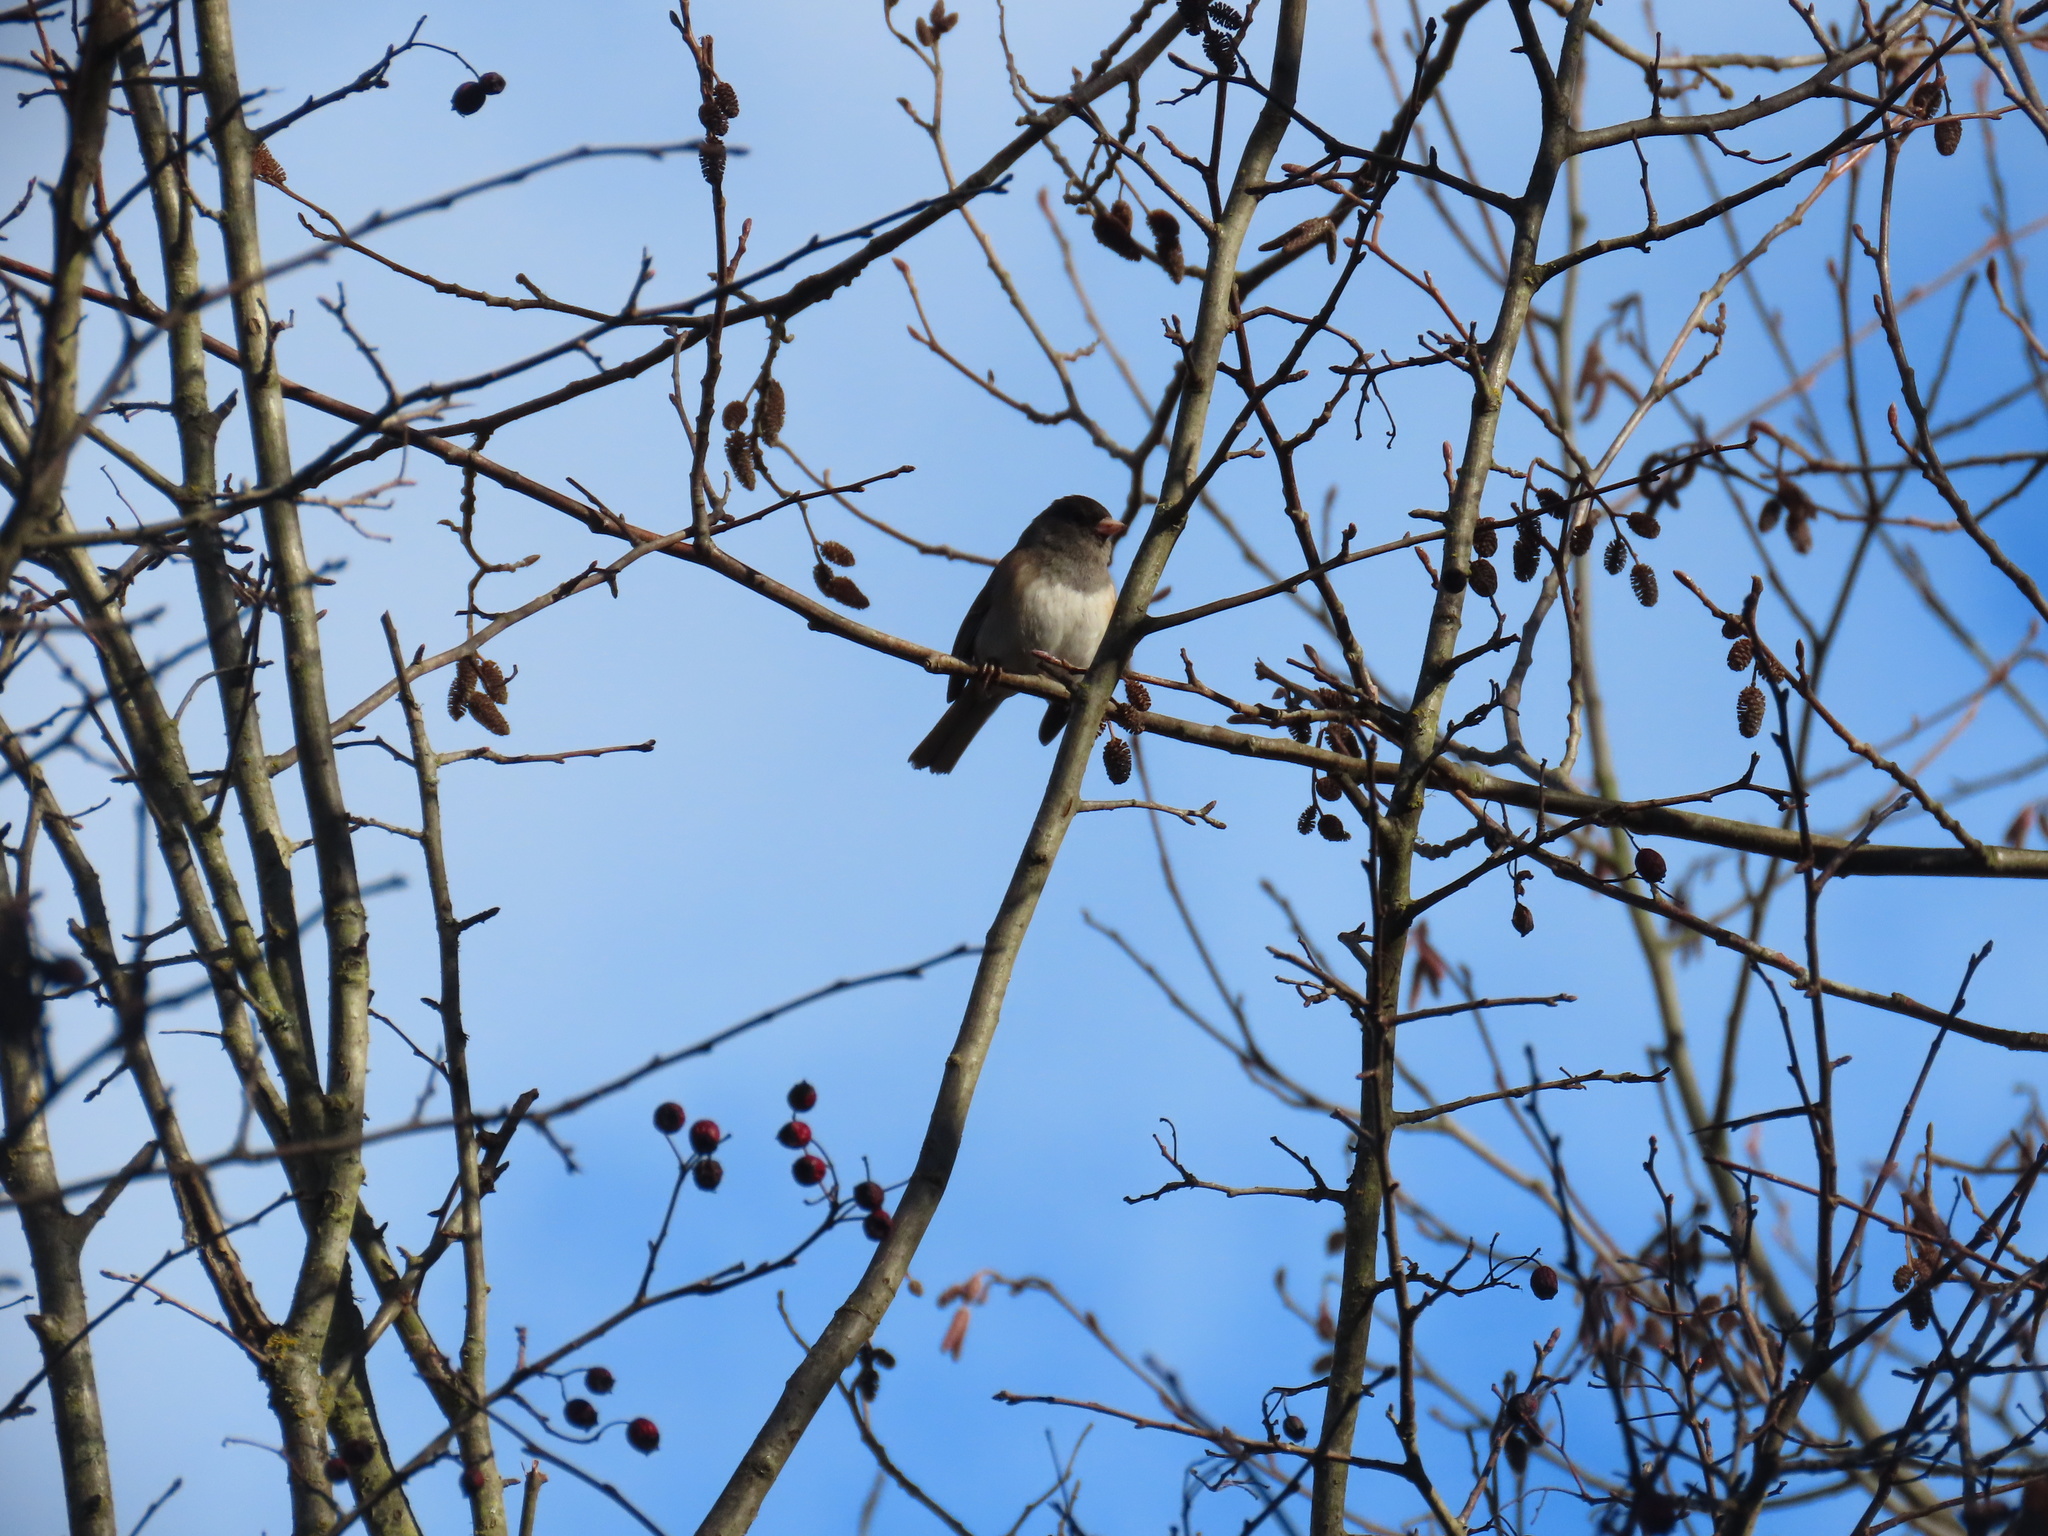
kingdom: Animalia
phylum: Chordata
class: Aves
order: Passeriformes
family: Passerellidae
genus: Junco
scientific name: Junco hyemalis
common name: Dark-eyed junco
